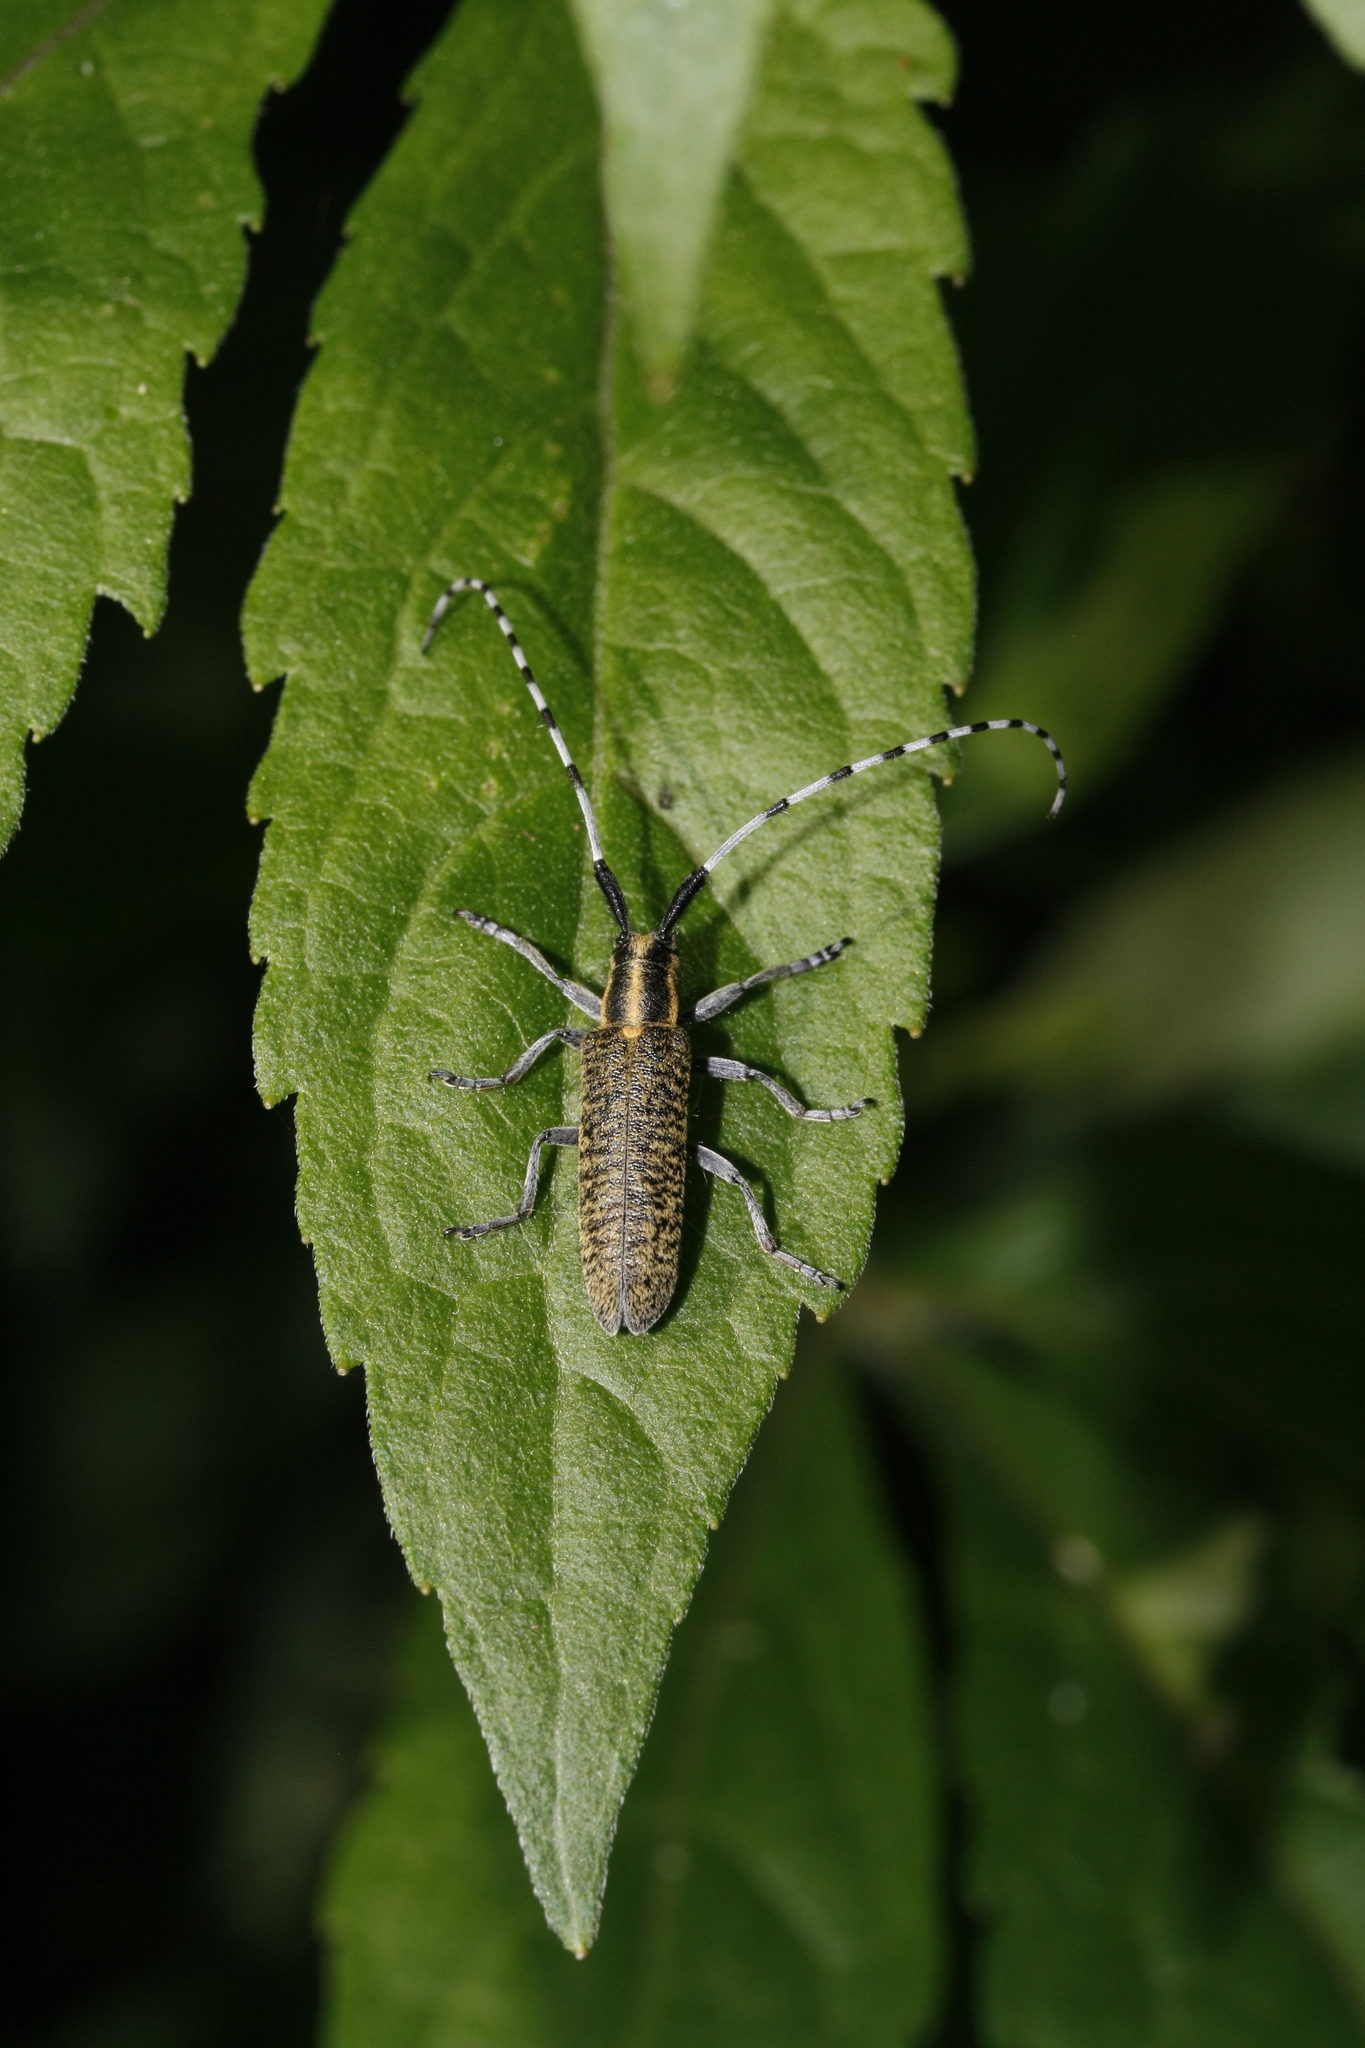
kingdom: Animalia
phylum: Arthropoda
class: Insecta
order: Coleoptera
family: Cerambycidae
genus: Agapanthia
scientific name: Agapanthia villosoviridescens
